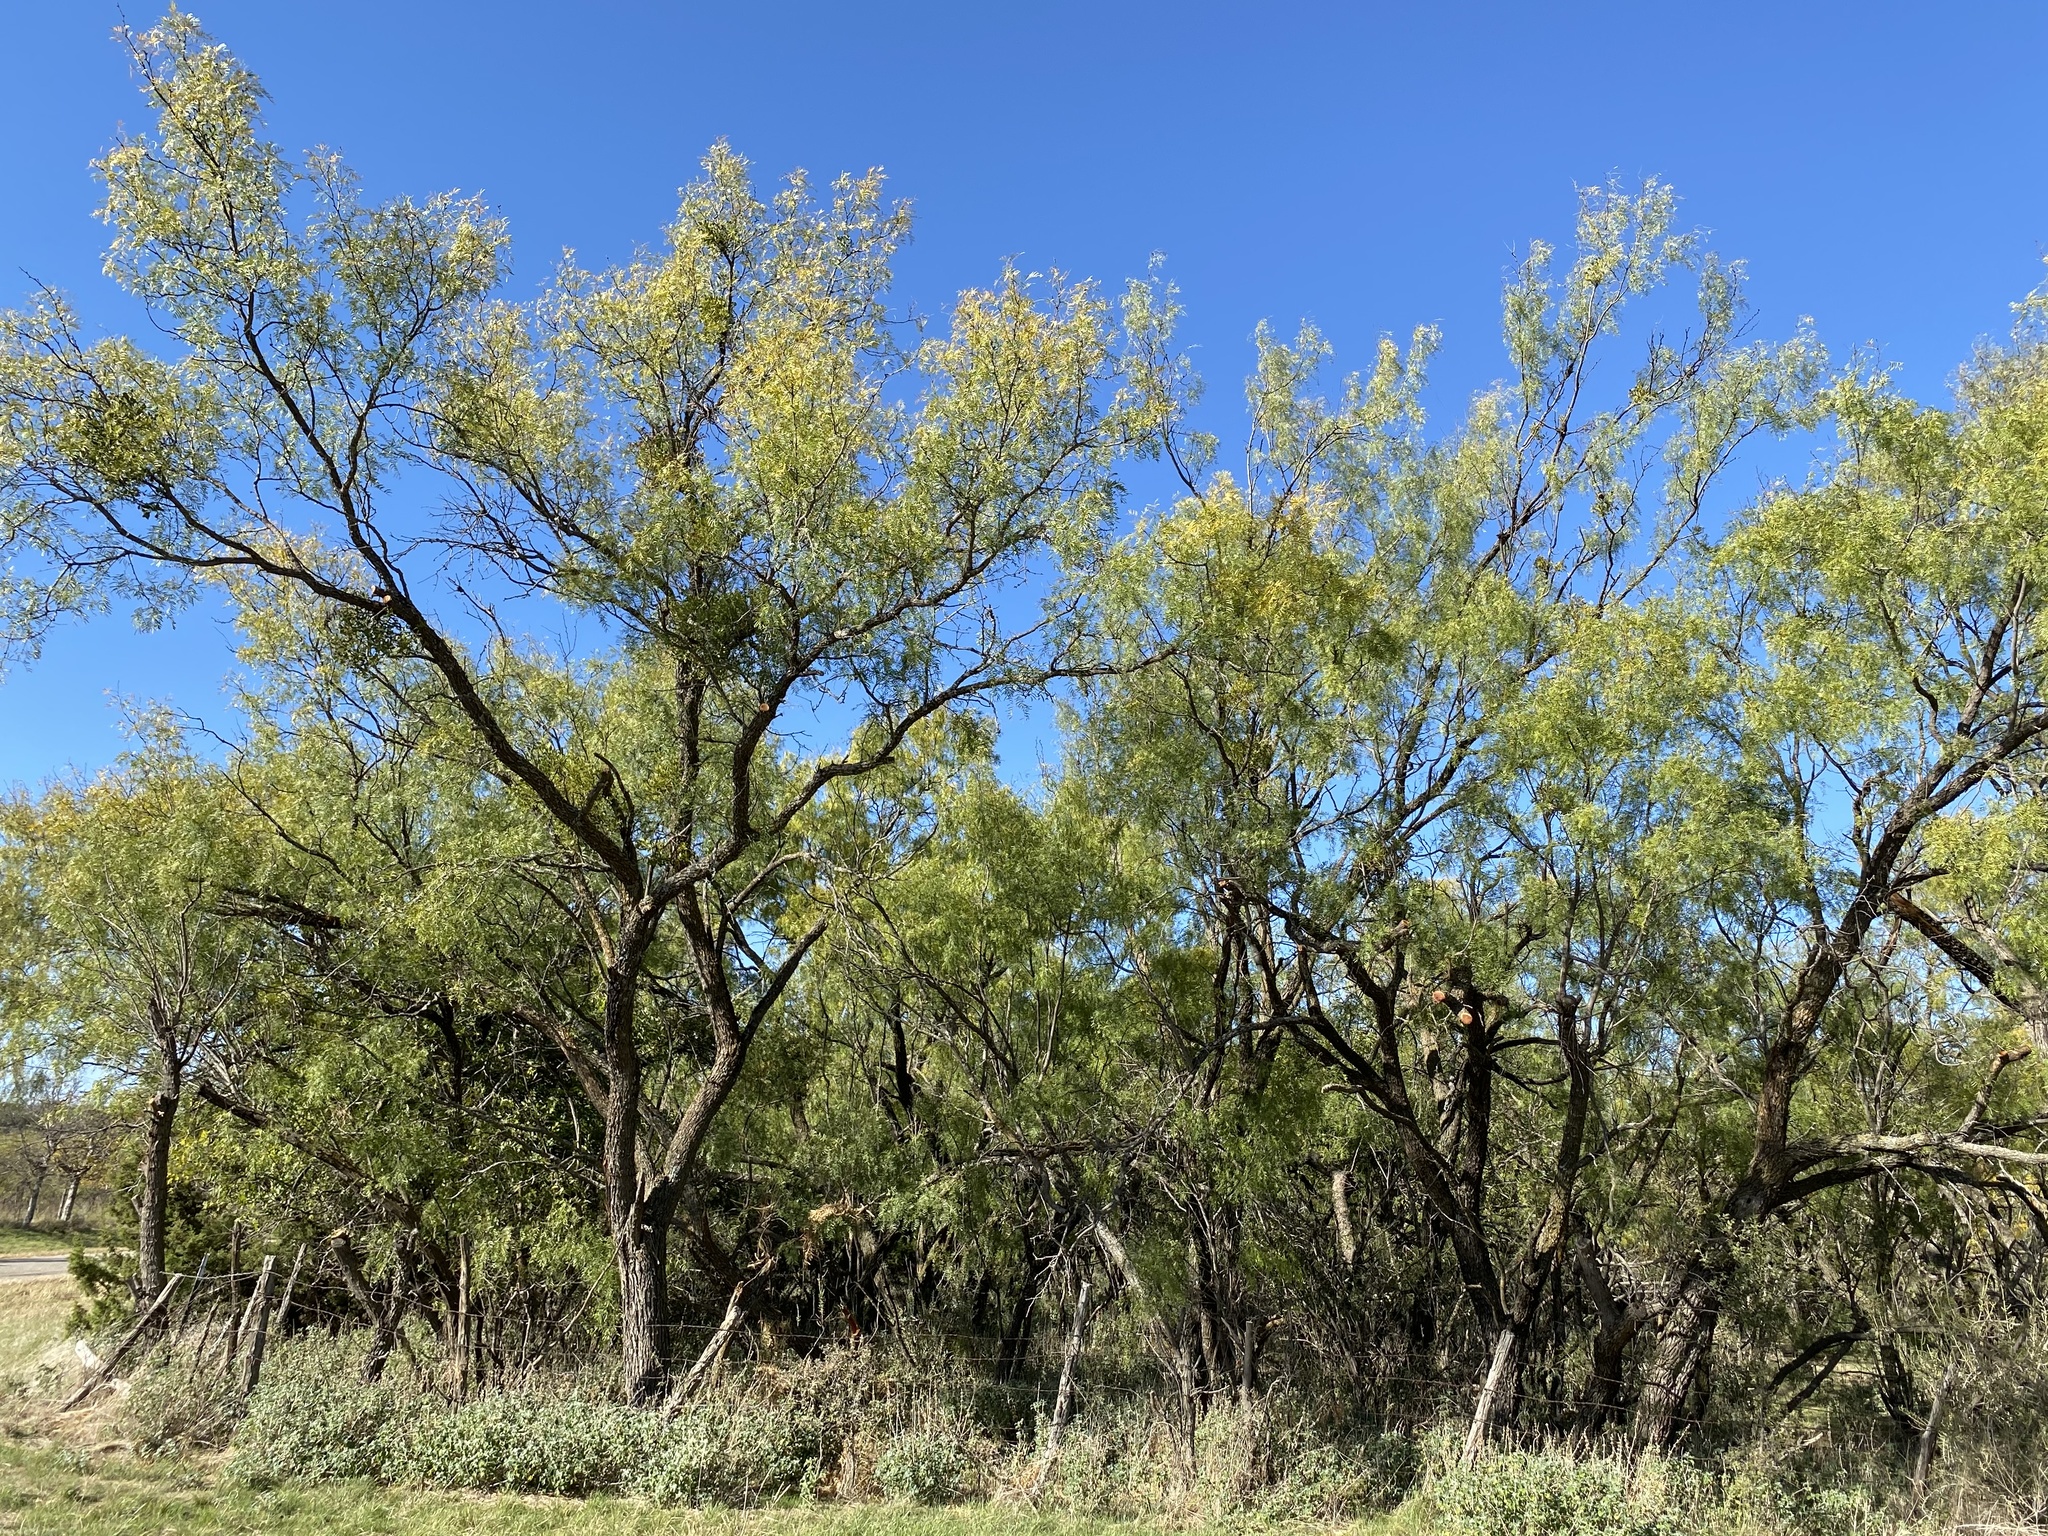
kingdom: Plantae
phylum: Tracheophyta
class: Magnoliopsida
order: Fabales
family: Fabaceae
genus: Prosopis
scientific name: Prosopis glandulosa
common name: Honey mesquite
